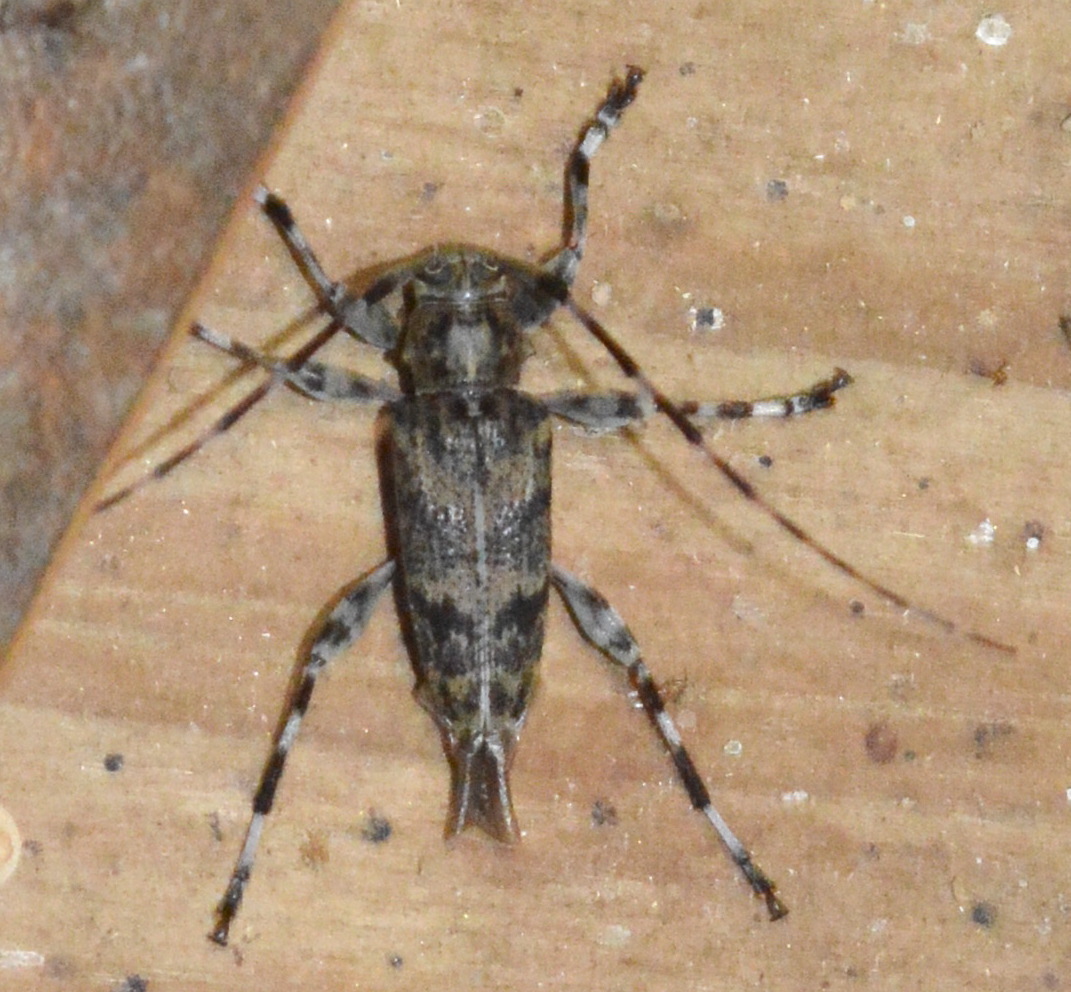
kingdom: Animalia
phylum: Arthropoda
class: Insecta
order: Coleoptera
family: Cerambycidae
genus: Graphisurus
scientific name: Graphisurus fasciatus
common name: Banded graphisurus
